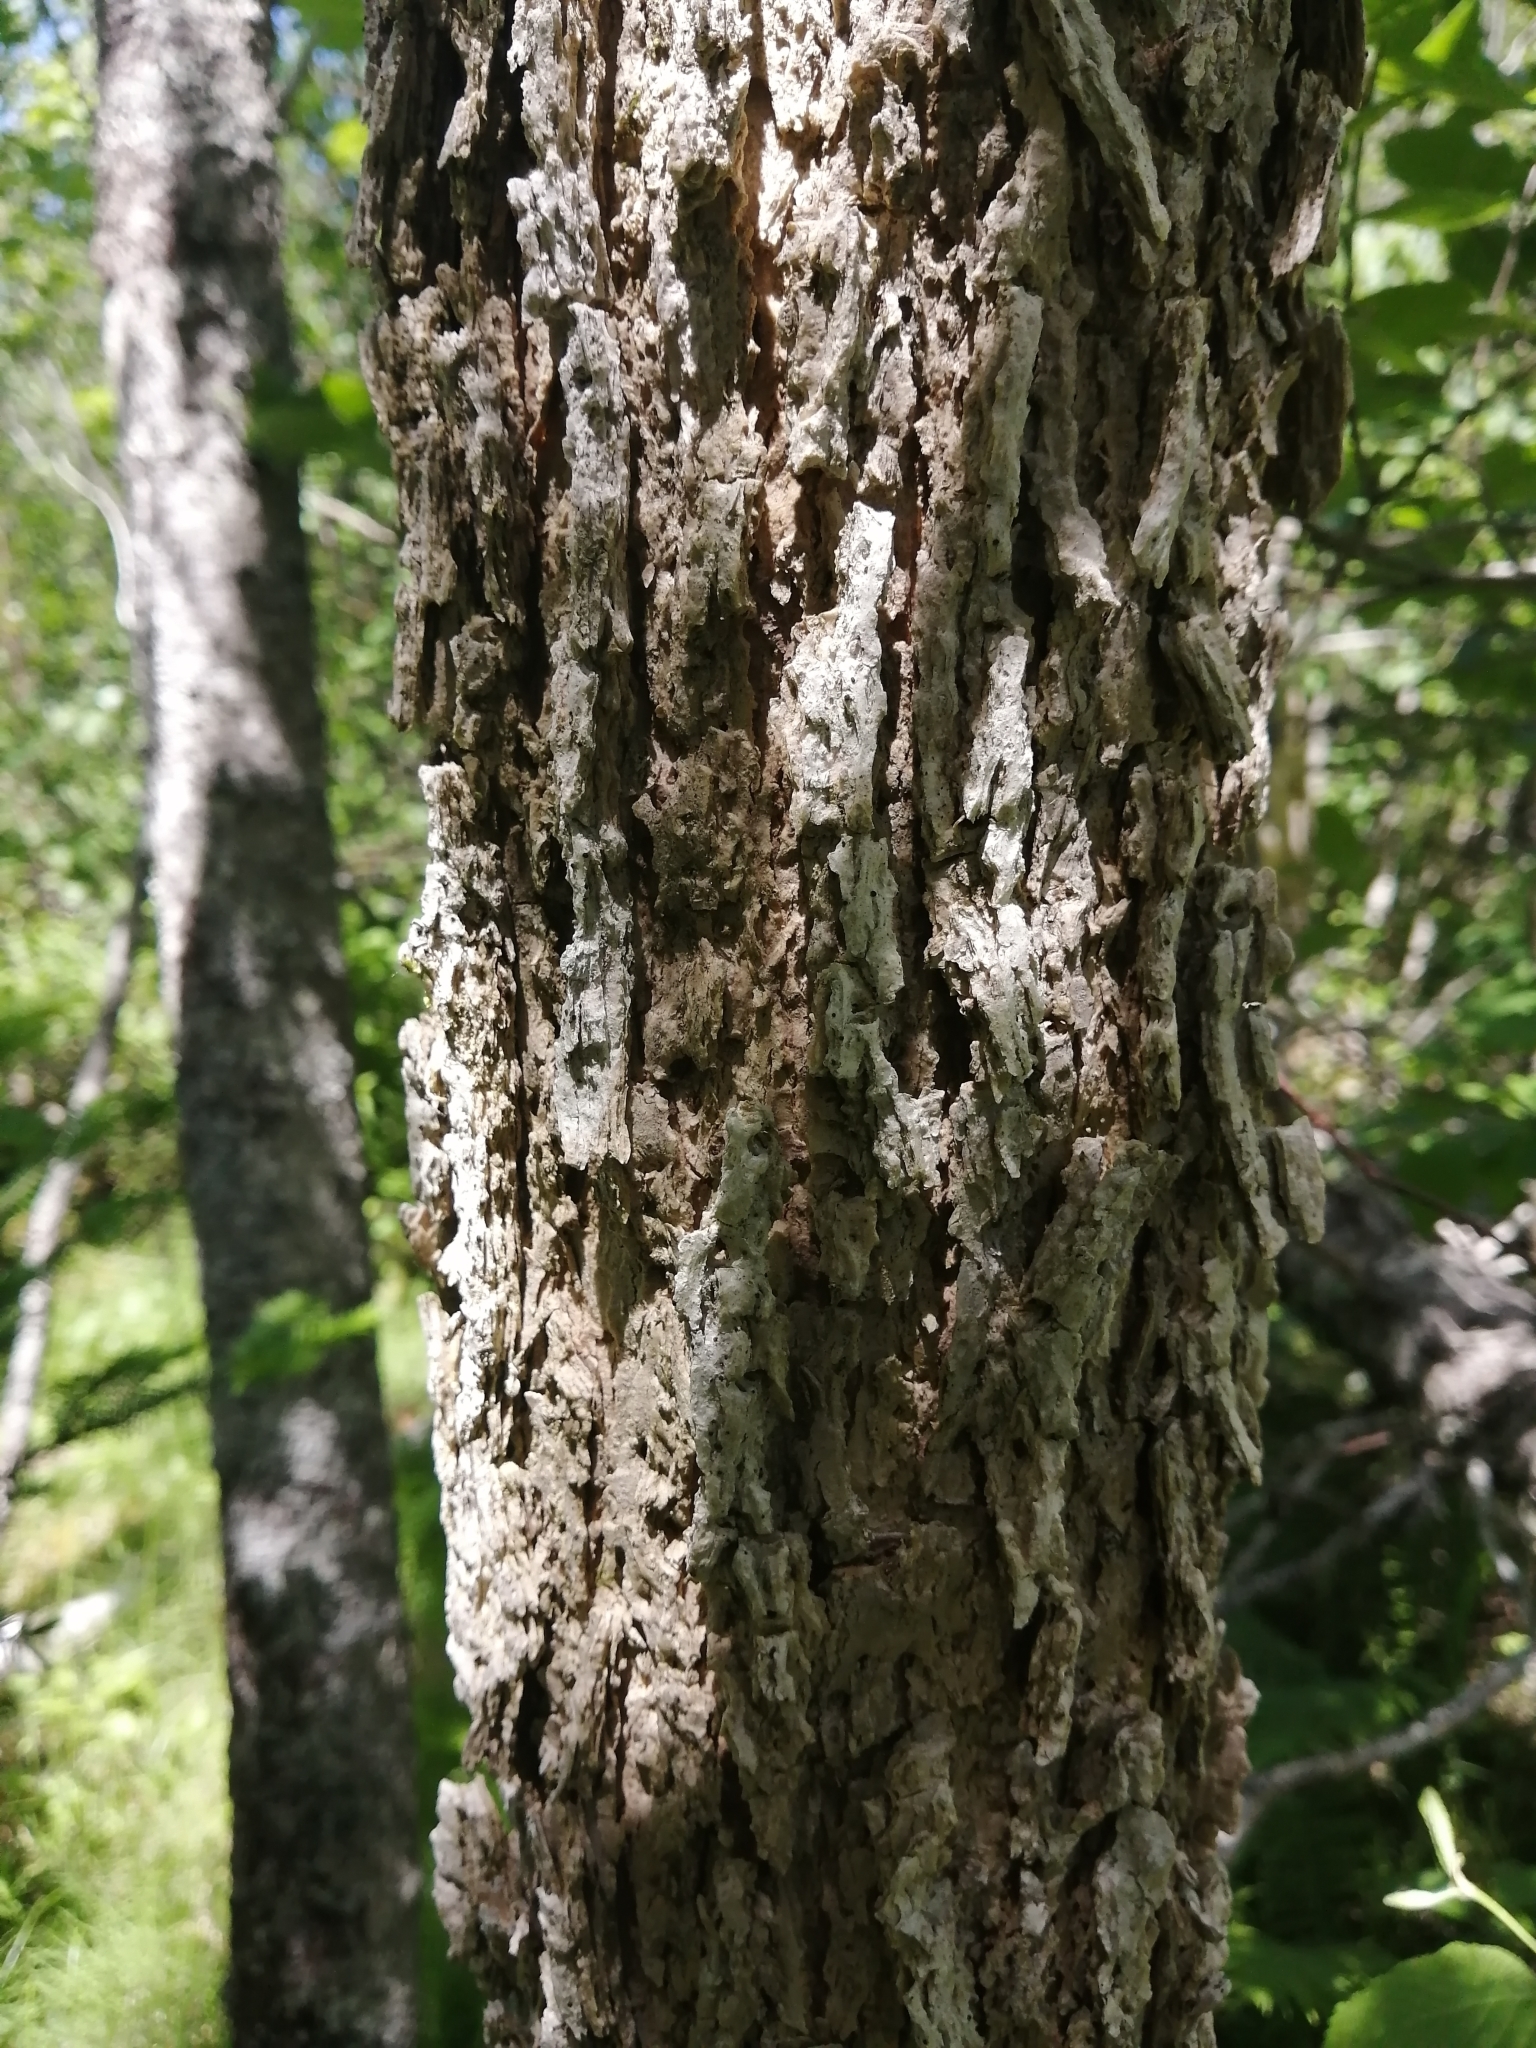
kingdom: Plantae
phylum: Tracheophyta
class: Magnoliopsida
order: Lamiales
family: Oleaceae
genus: Fraxinus
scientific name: Fraxinus nigra
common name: Black ash
